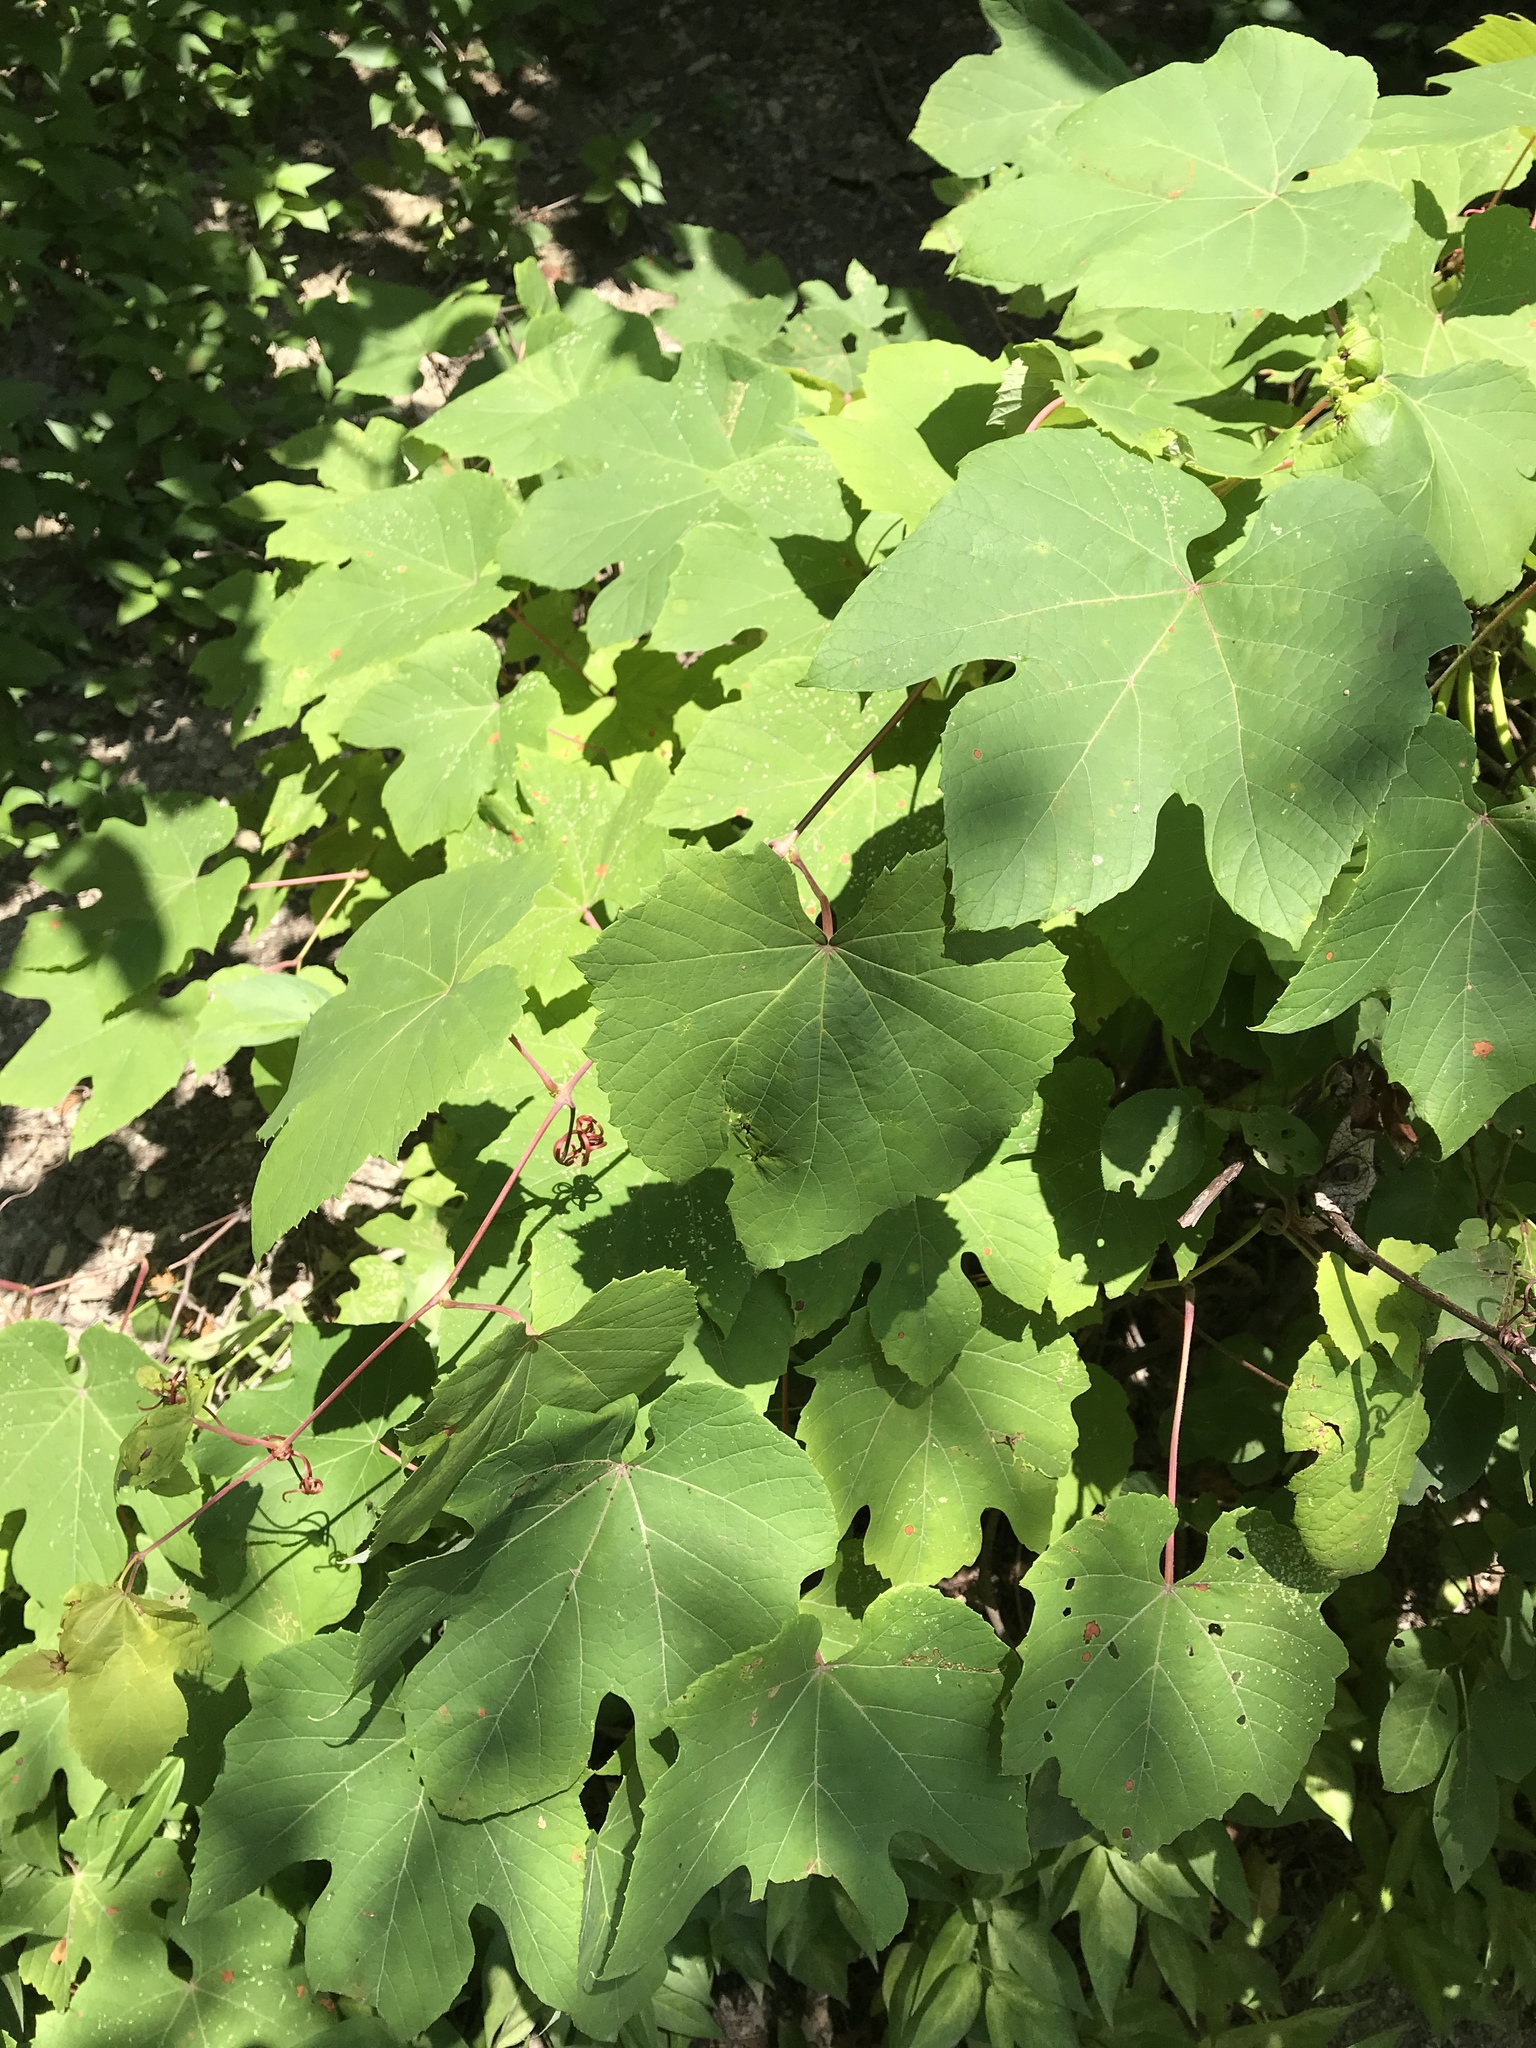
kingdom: Plantae
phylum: Tracheophyta
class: Magnoliopsida
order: Vitales
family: Vitaceae
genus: Vitis
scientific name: Vitis aestivalis
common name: Pigeon grape
